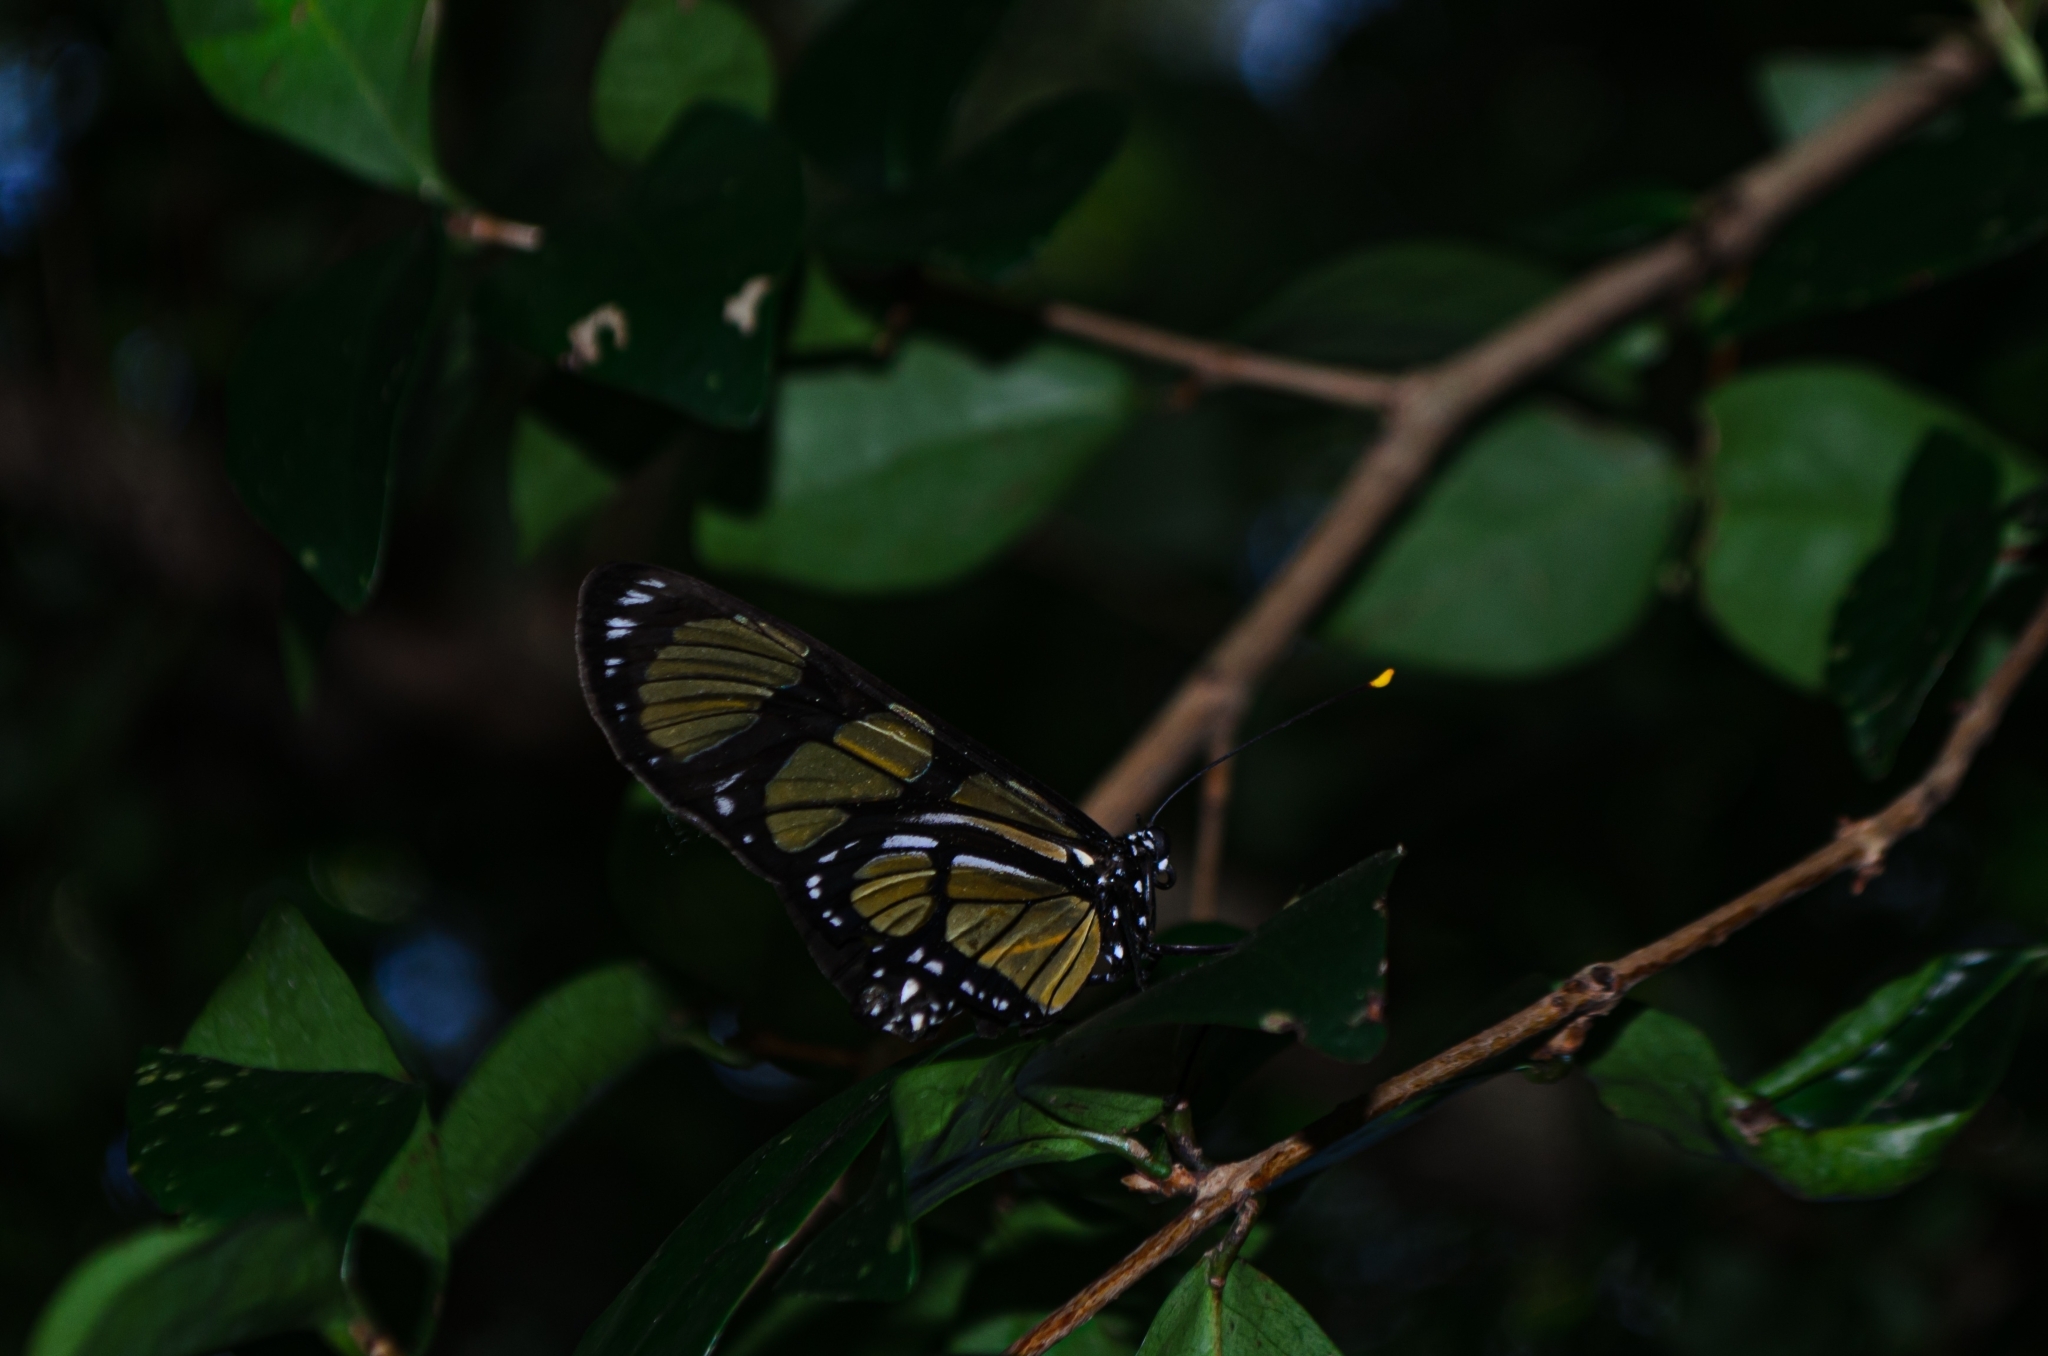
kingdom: Animalia
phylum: Arthropoda
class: Insecta
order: Lepidoptera
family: Nymphalidae
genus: Methona
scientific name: Methona themisto
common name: Themisto amberwing
